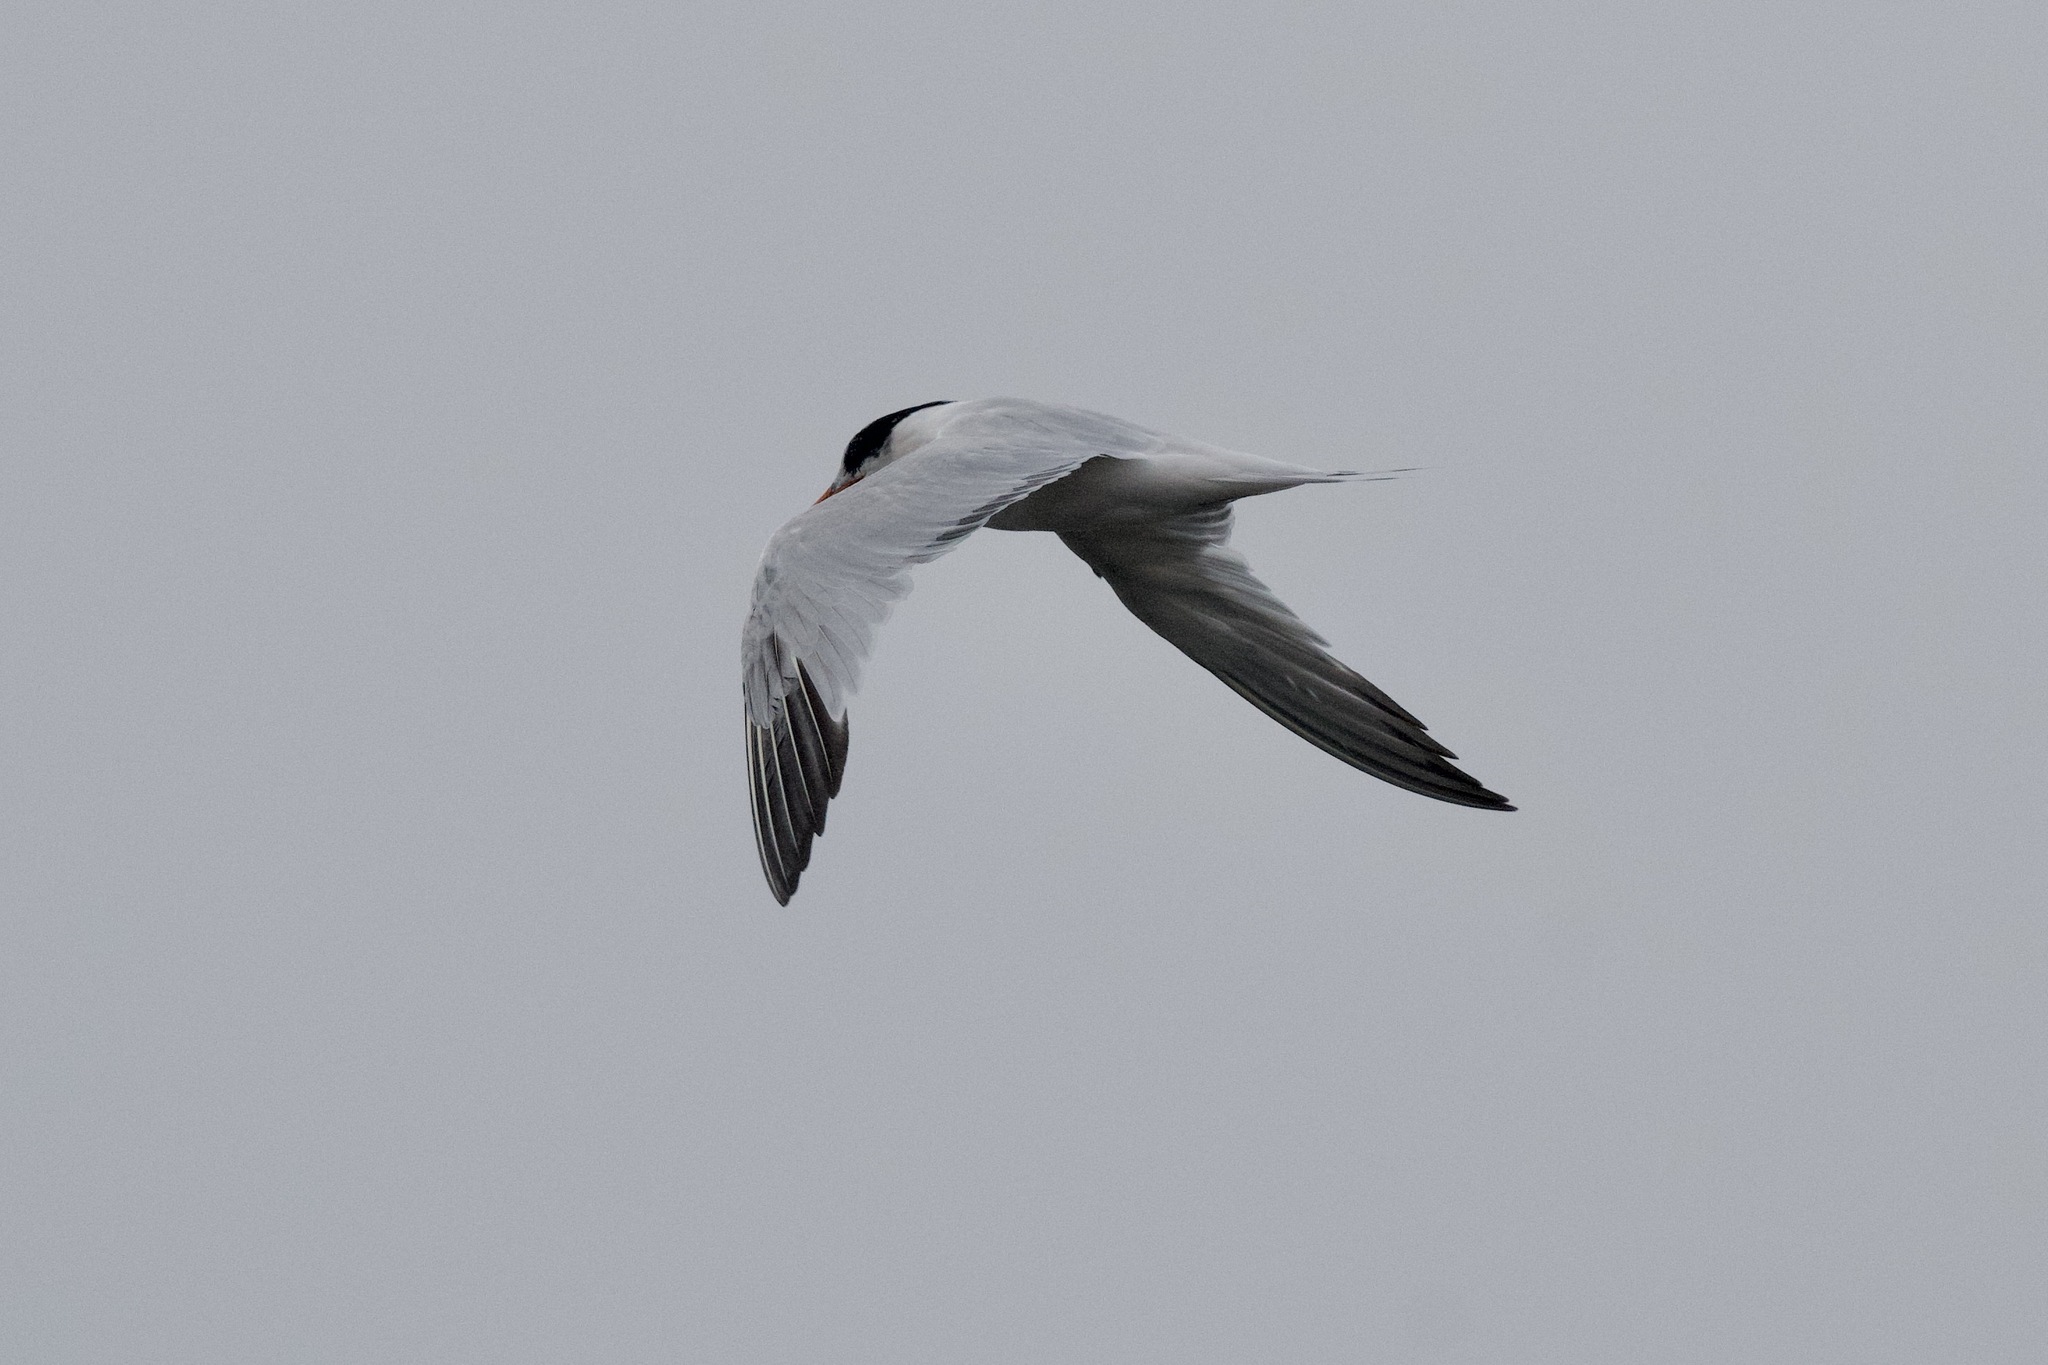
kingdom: Animalia
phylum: Chordata
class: Aves
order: Charadriiformes
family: Laridae
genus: Thalasseus
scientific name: Thalasseus elegans
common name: Elegant tern
